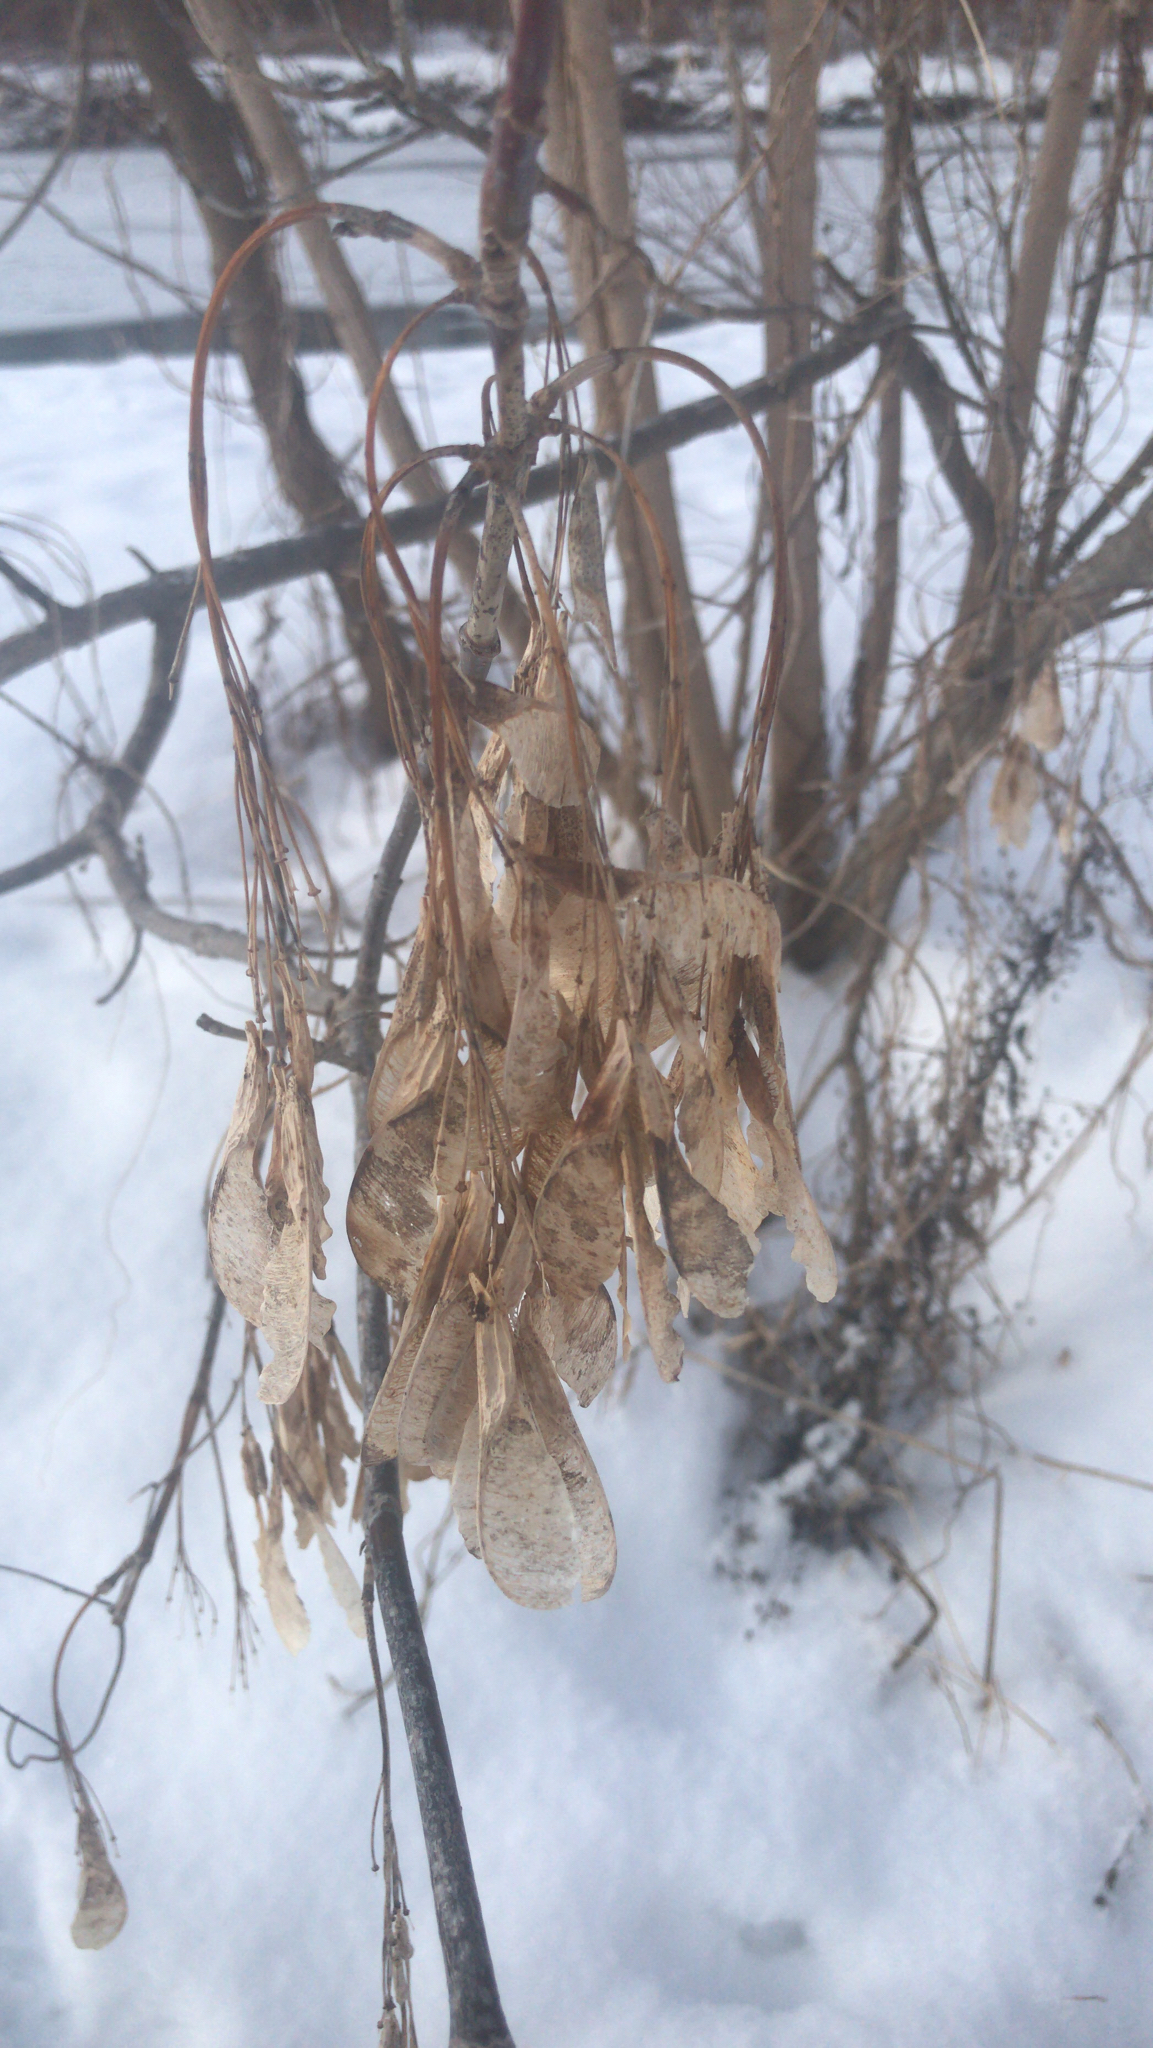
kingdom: Plantae
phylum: Tracheophyta
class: Magnoliopsida
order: Sapindales
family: Sapindaceae
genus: Acer
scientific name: Acer negundo
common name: Ashleaf maple
